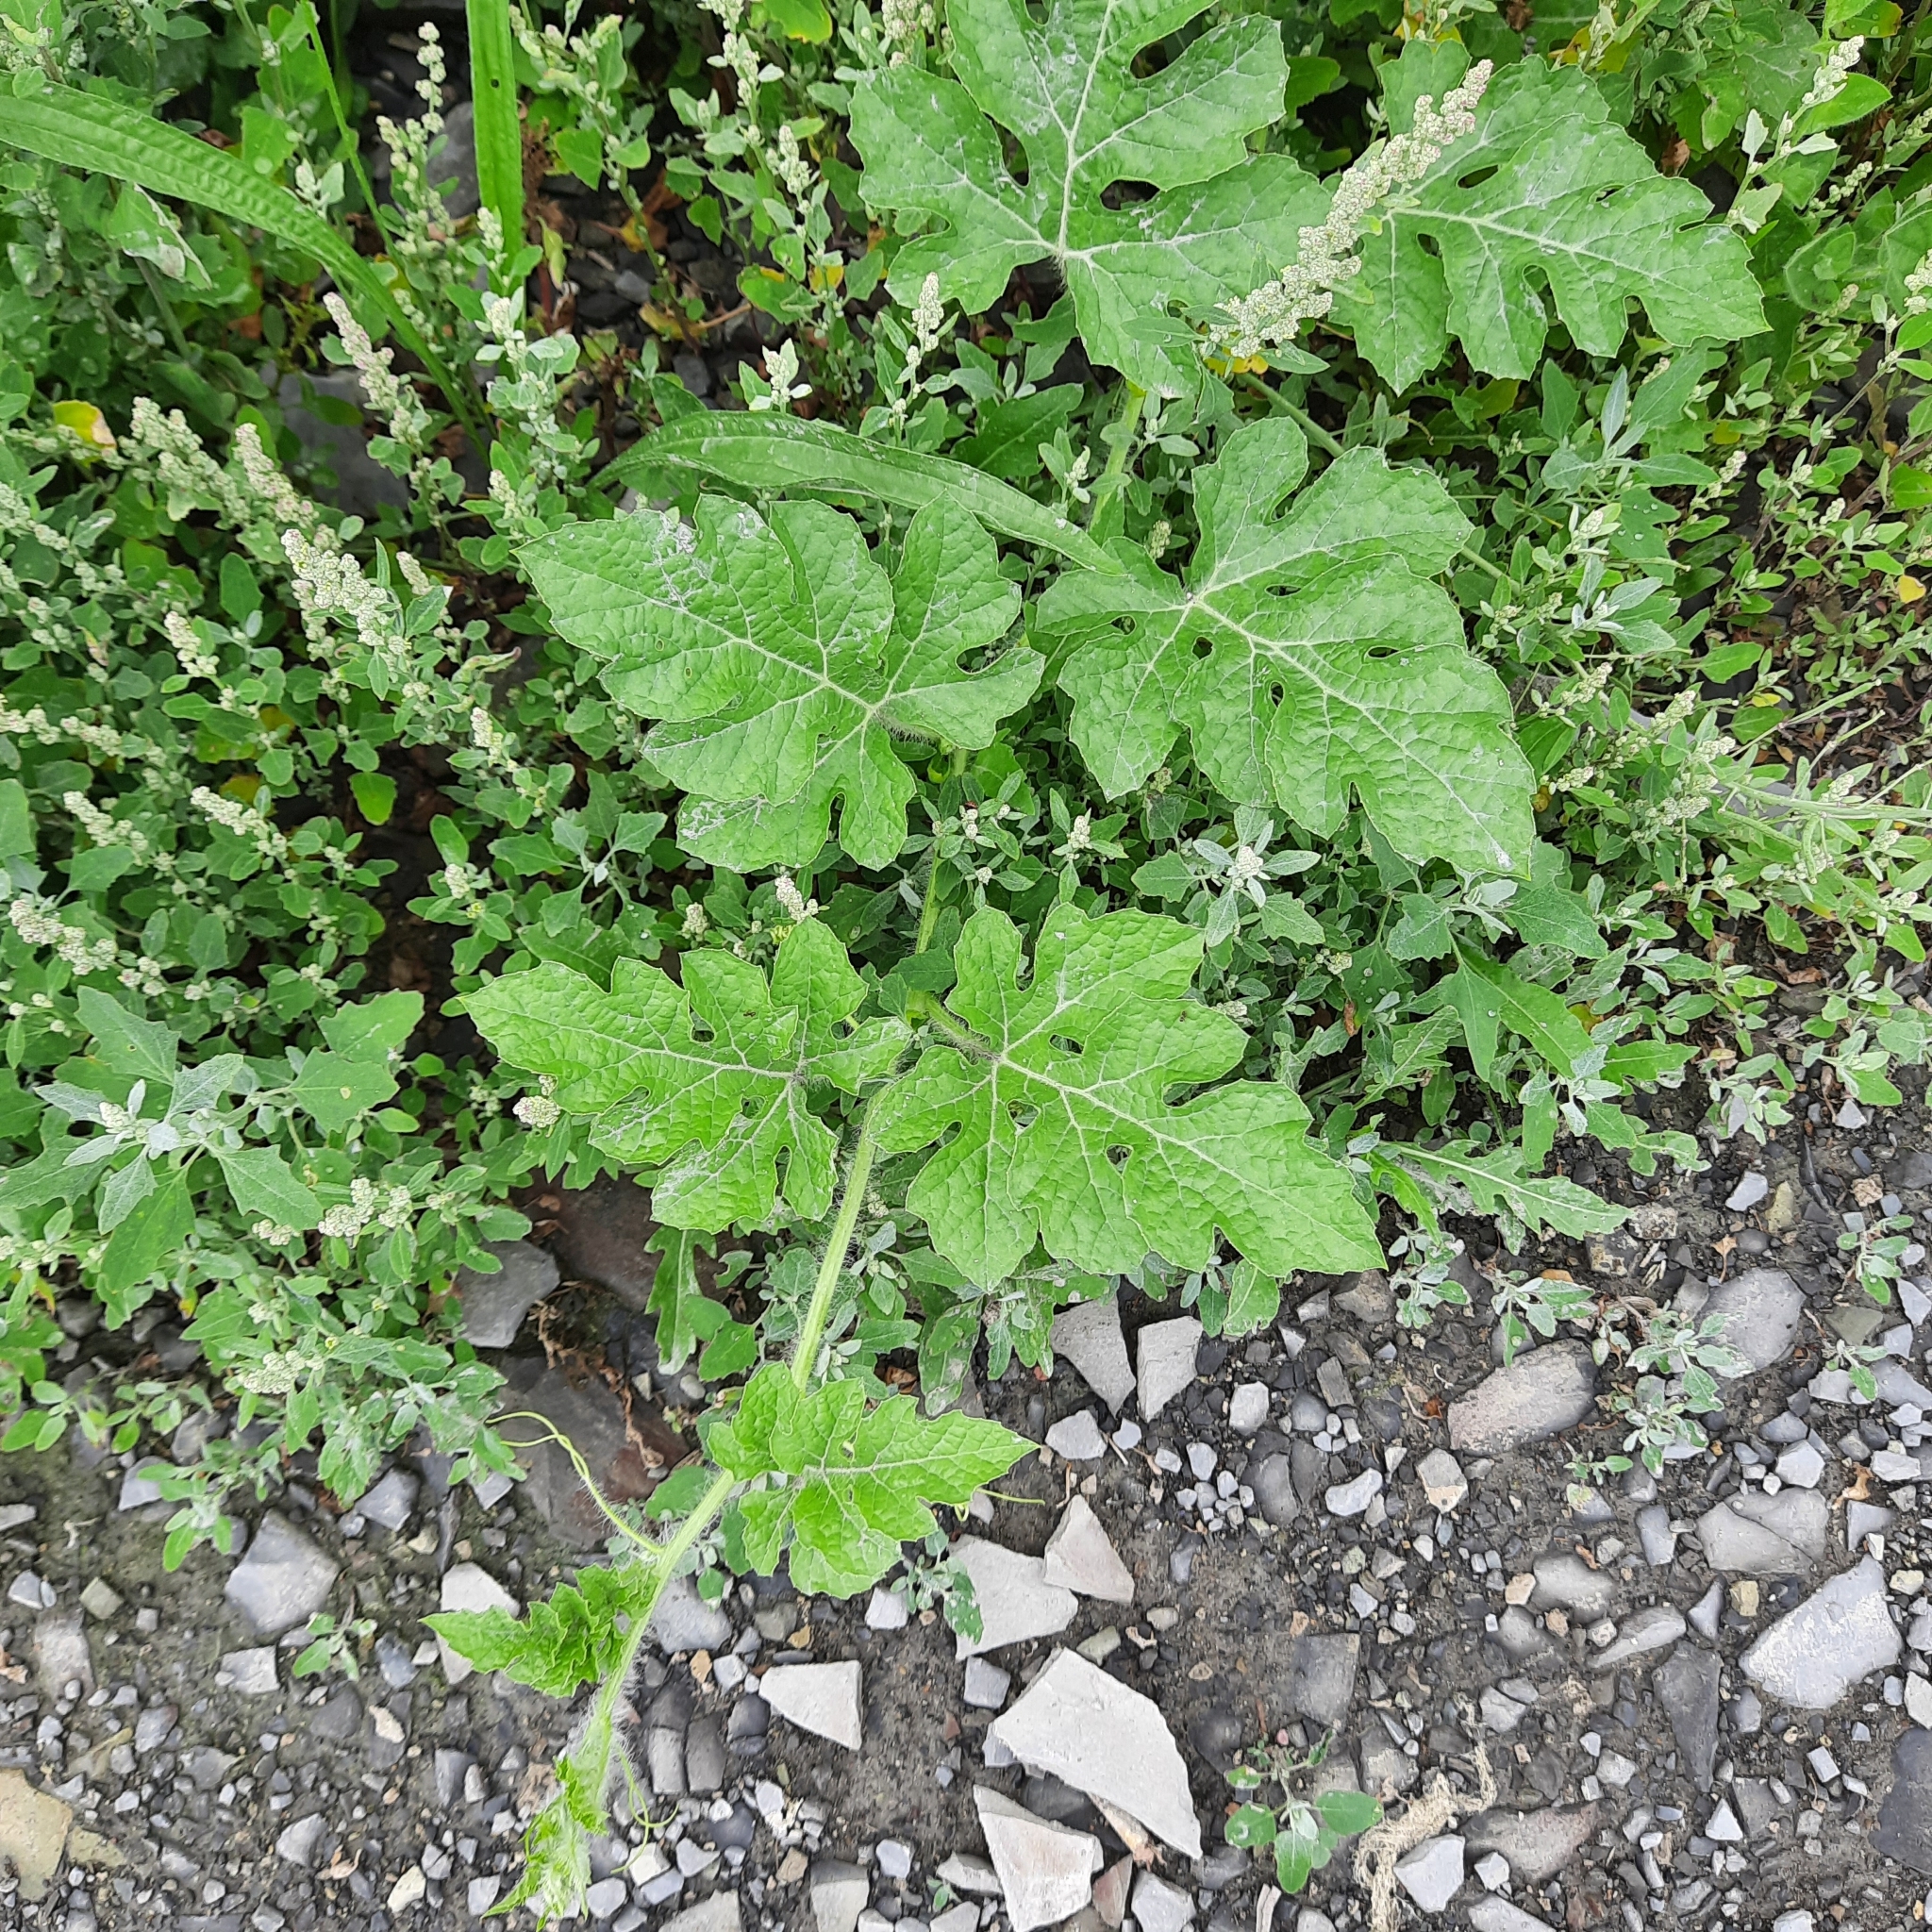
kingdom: Plantae
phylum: Tracheophyta
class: Magnoliopsida
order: Cucurbitales
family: Cucurbitaceae
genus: Citrullus
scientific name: Citrullus lanatus
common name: Watermelon
